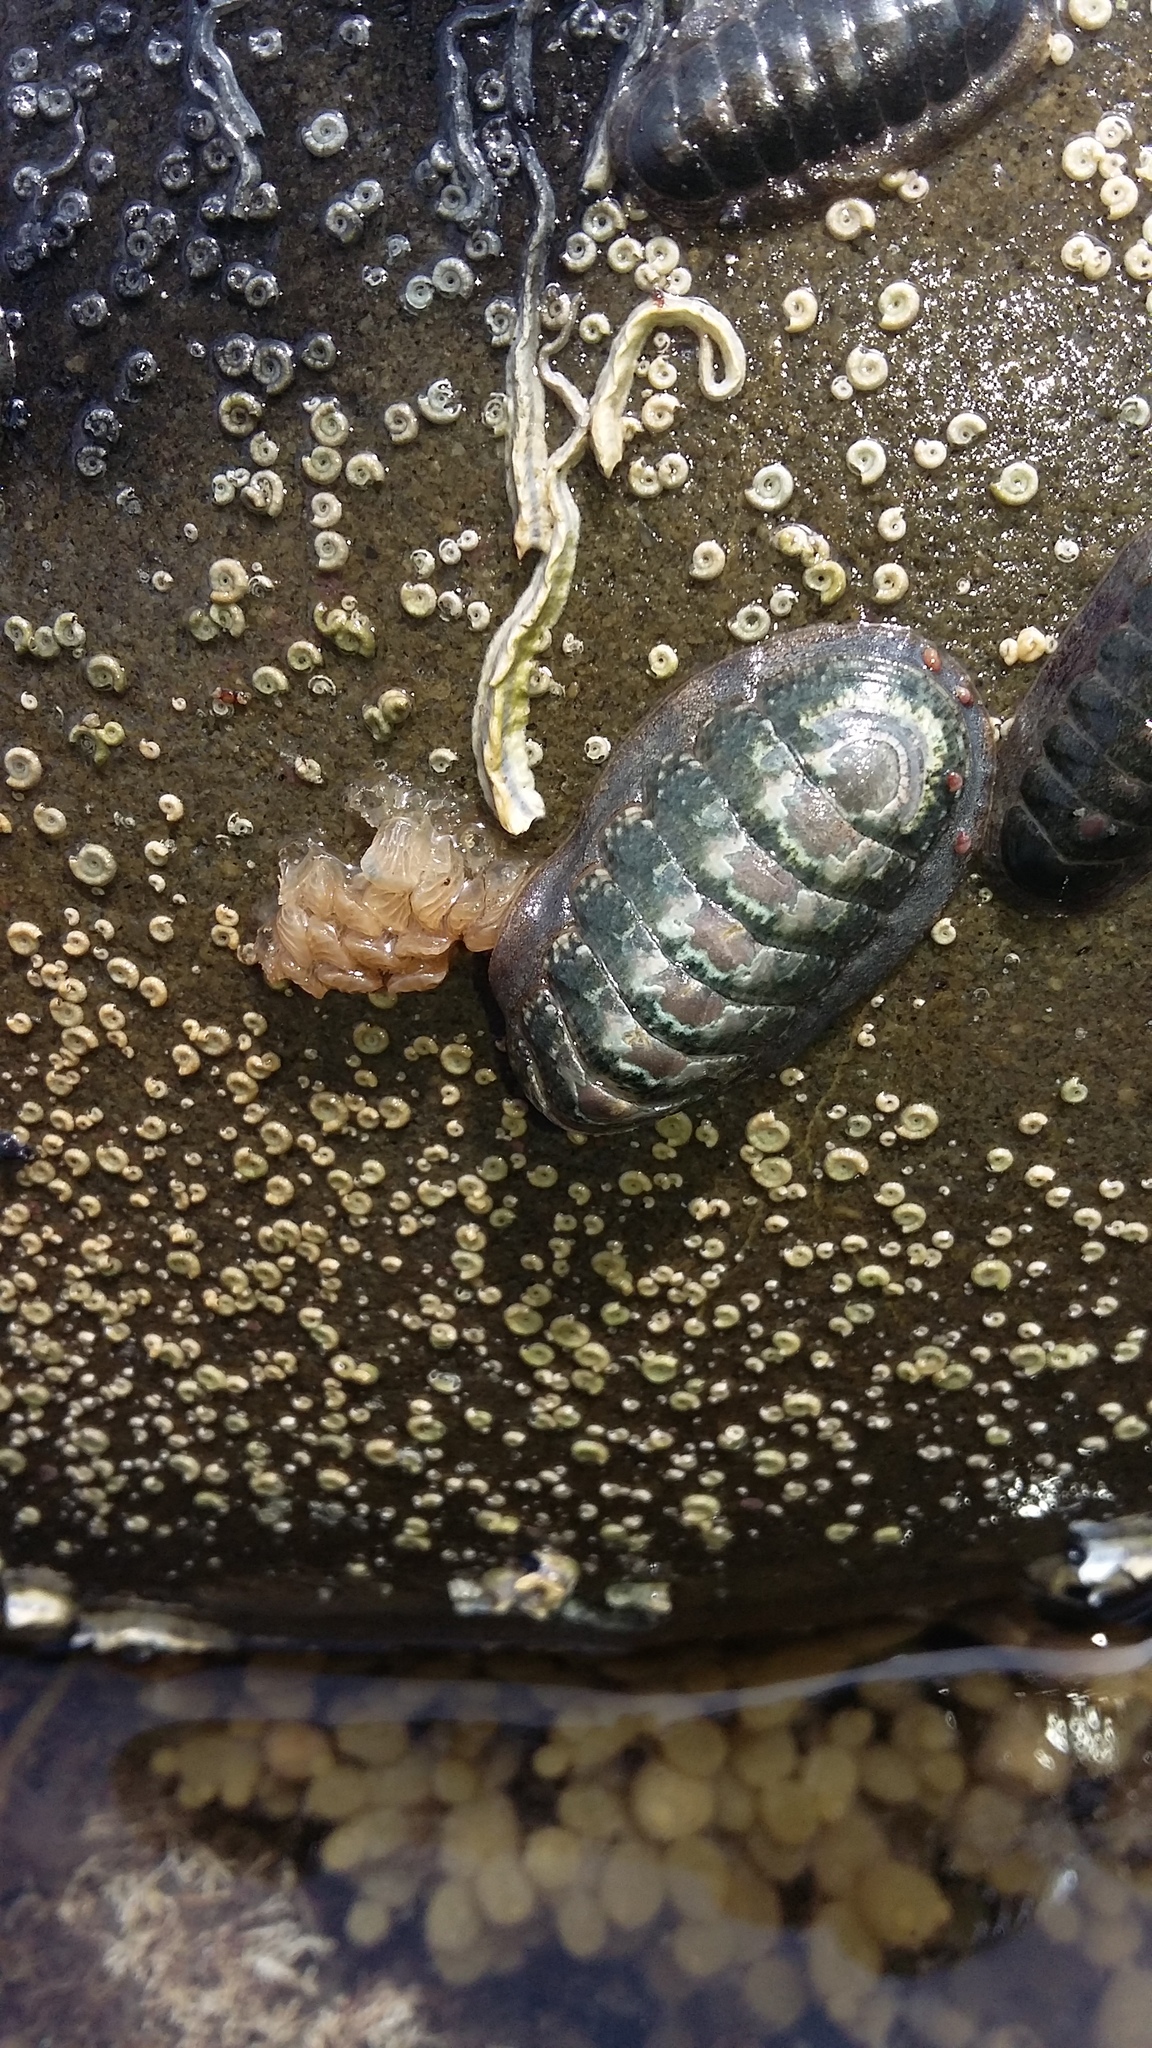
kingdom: Animalia
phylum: Mollusca
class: Polyplacophora
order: Chitonida
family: Ischnochitonidae
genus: Ischnochiton
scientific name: Ischnochiton maorianus
